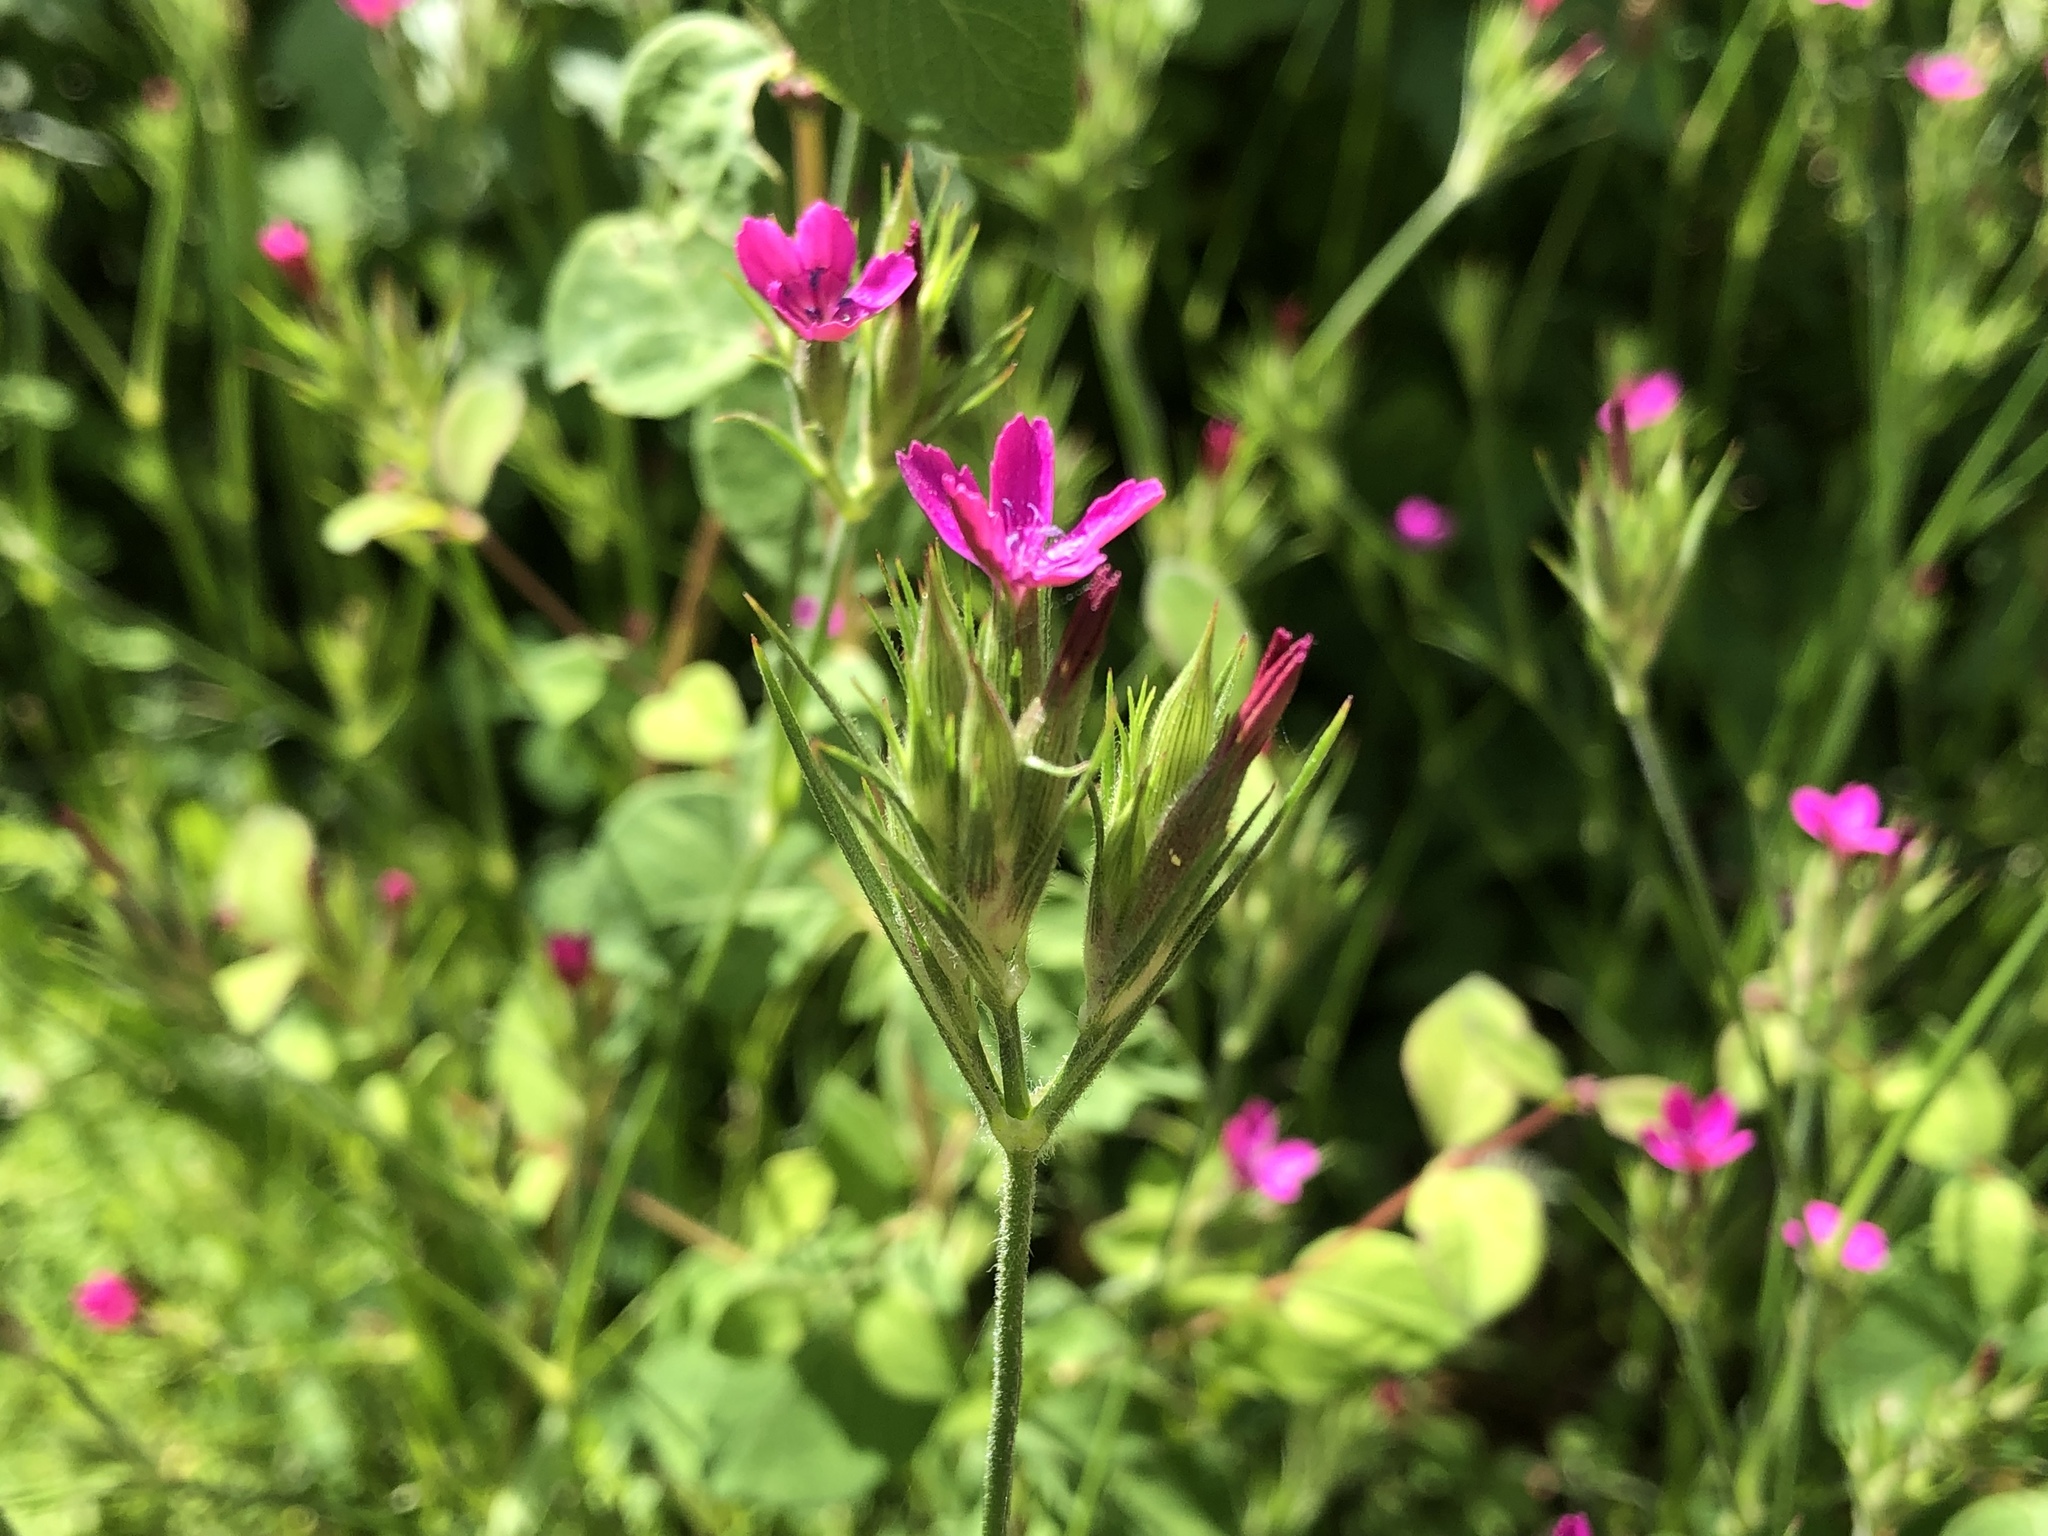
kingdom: Plantae
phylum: Tracheophyta
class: Magnoliopsida
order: Caryophyllales
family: Caryophyllaceae
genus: Dianthus
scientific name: Dianthus armeria
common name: Deptford pink
